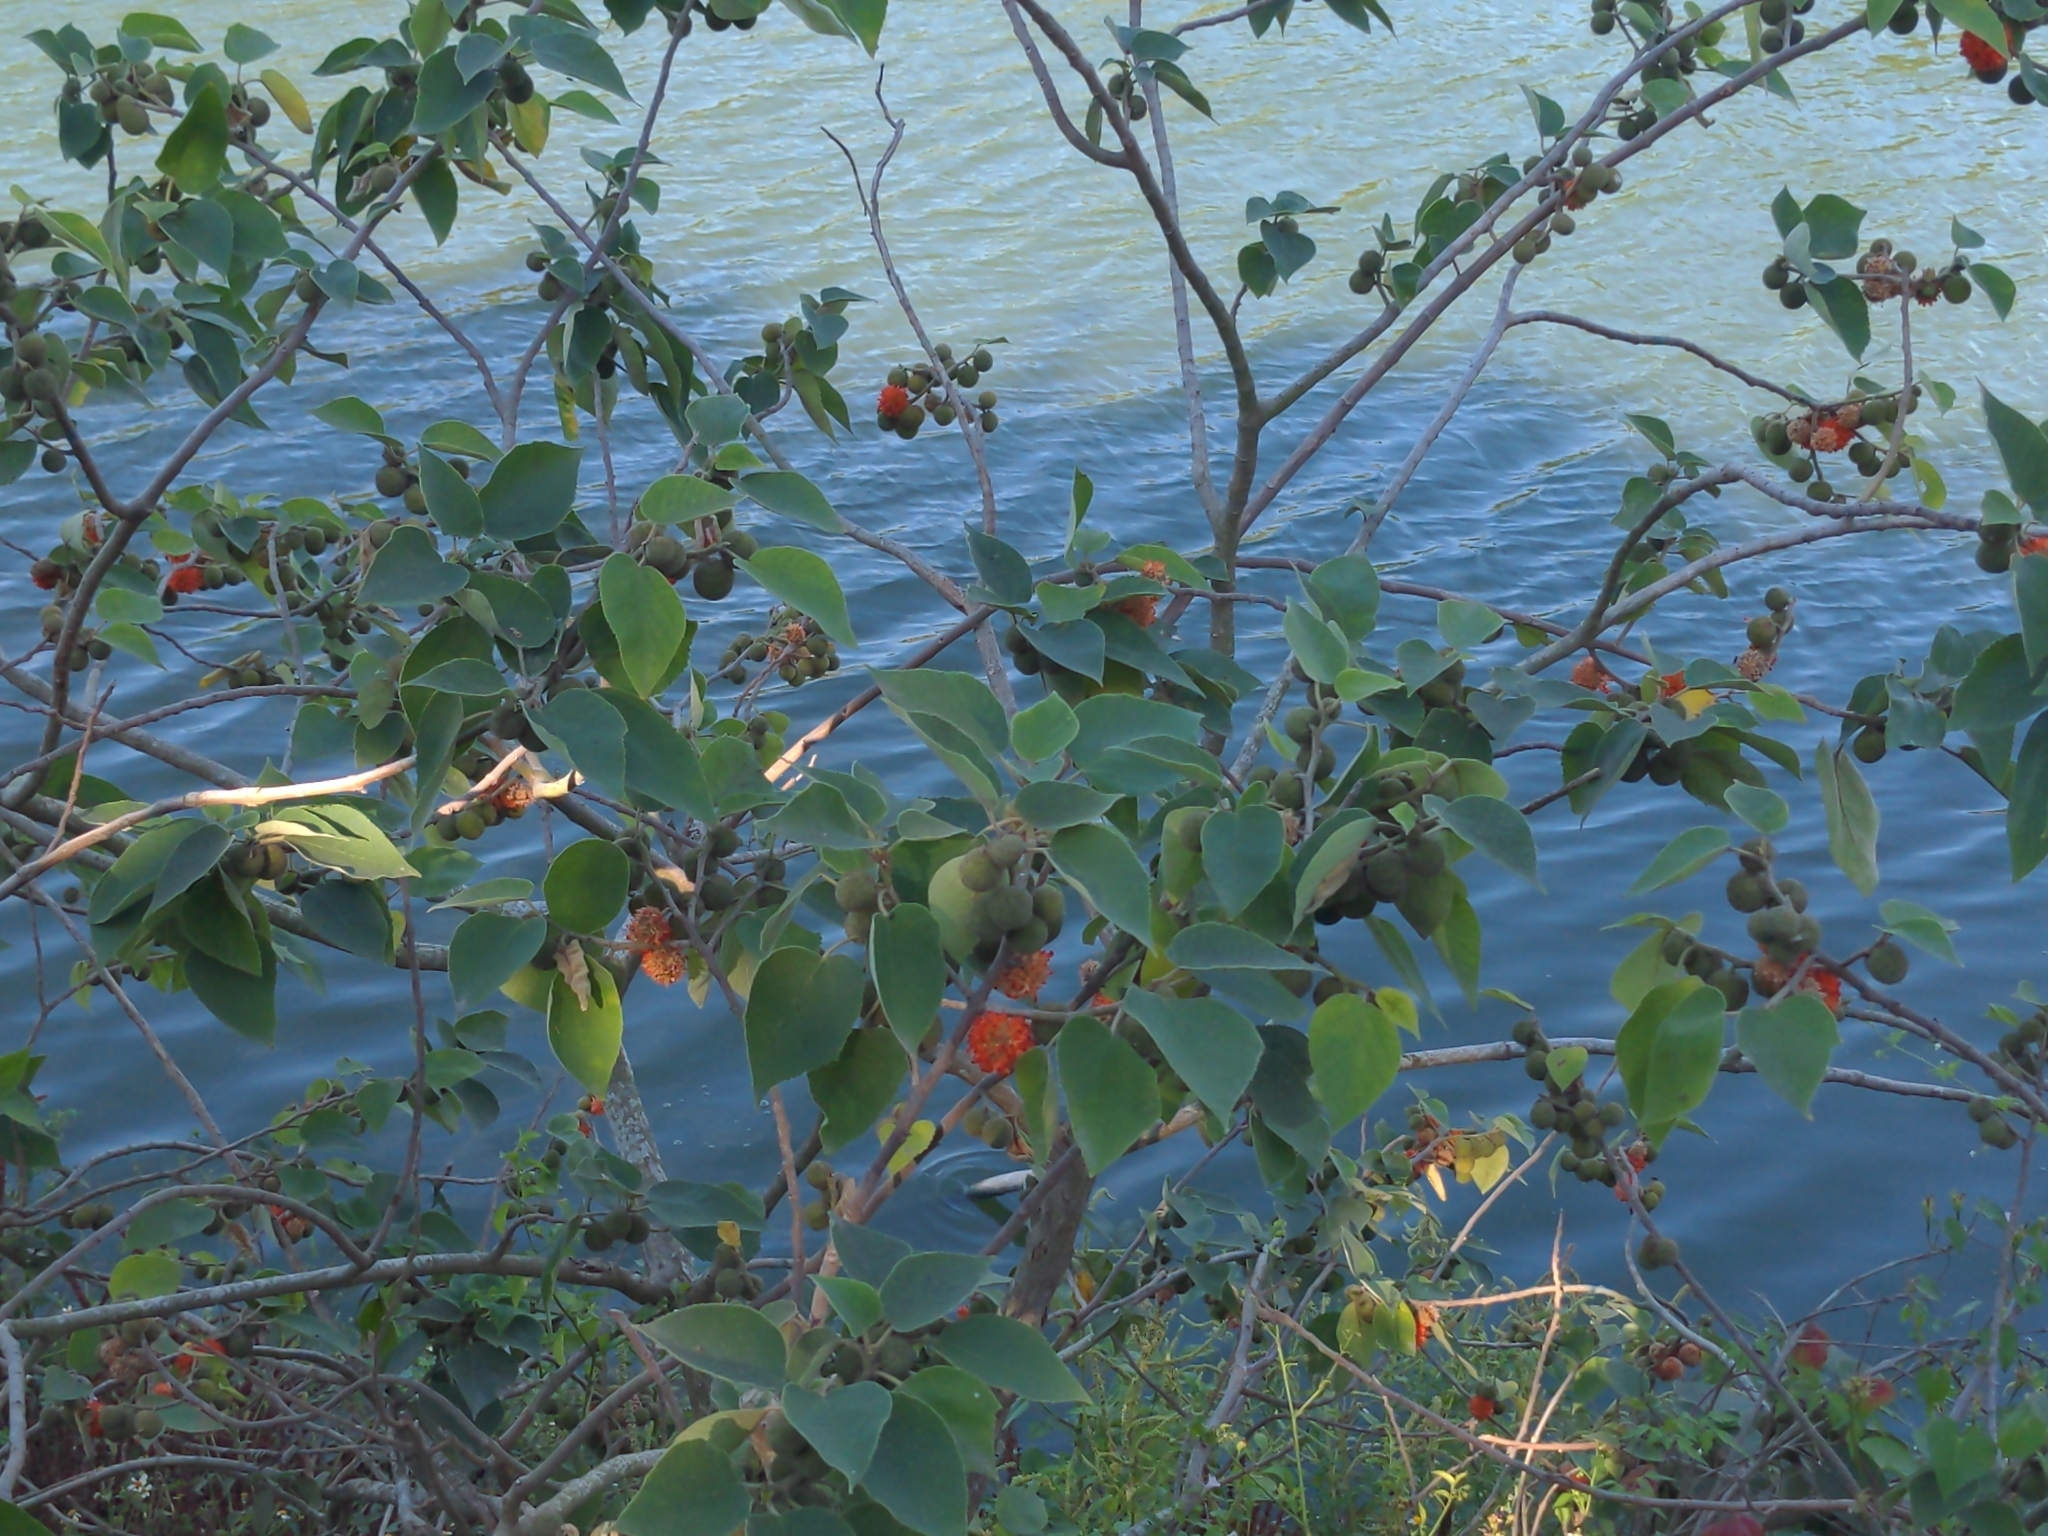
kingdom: Plantae
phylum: Tracheophyta
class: Magnoliopsida
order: Rosales
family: Moraceae
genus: Broussonetia
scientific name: Broussonetia papyrifera
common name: Paper mulberry
